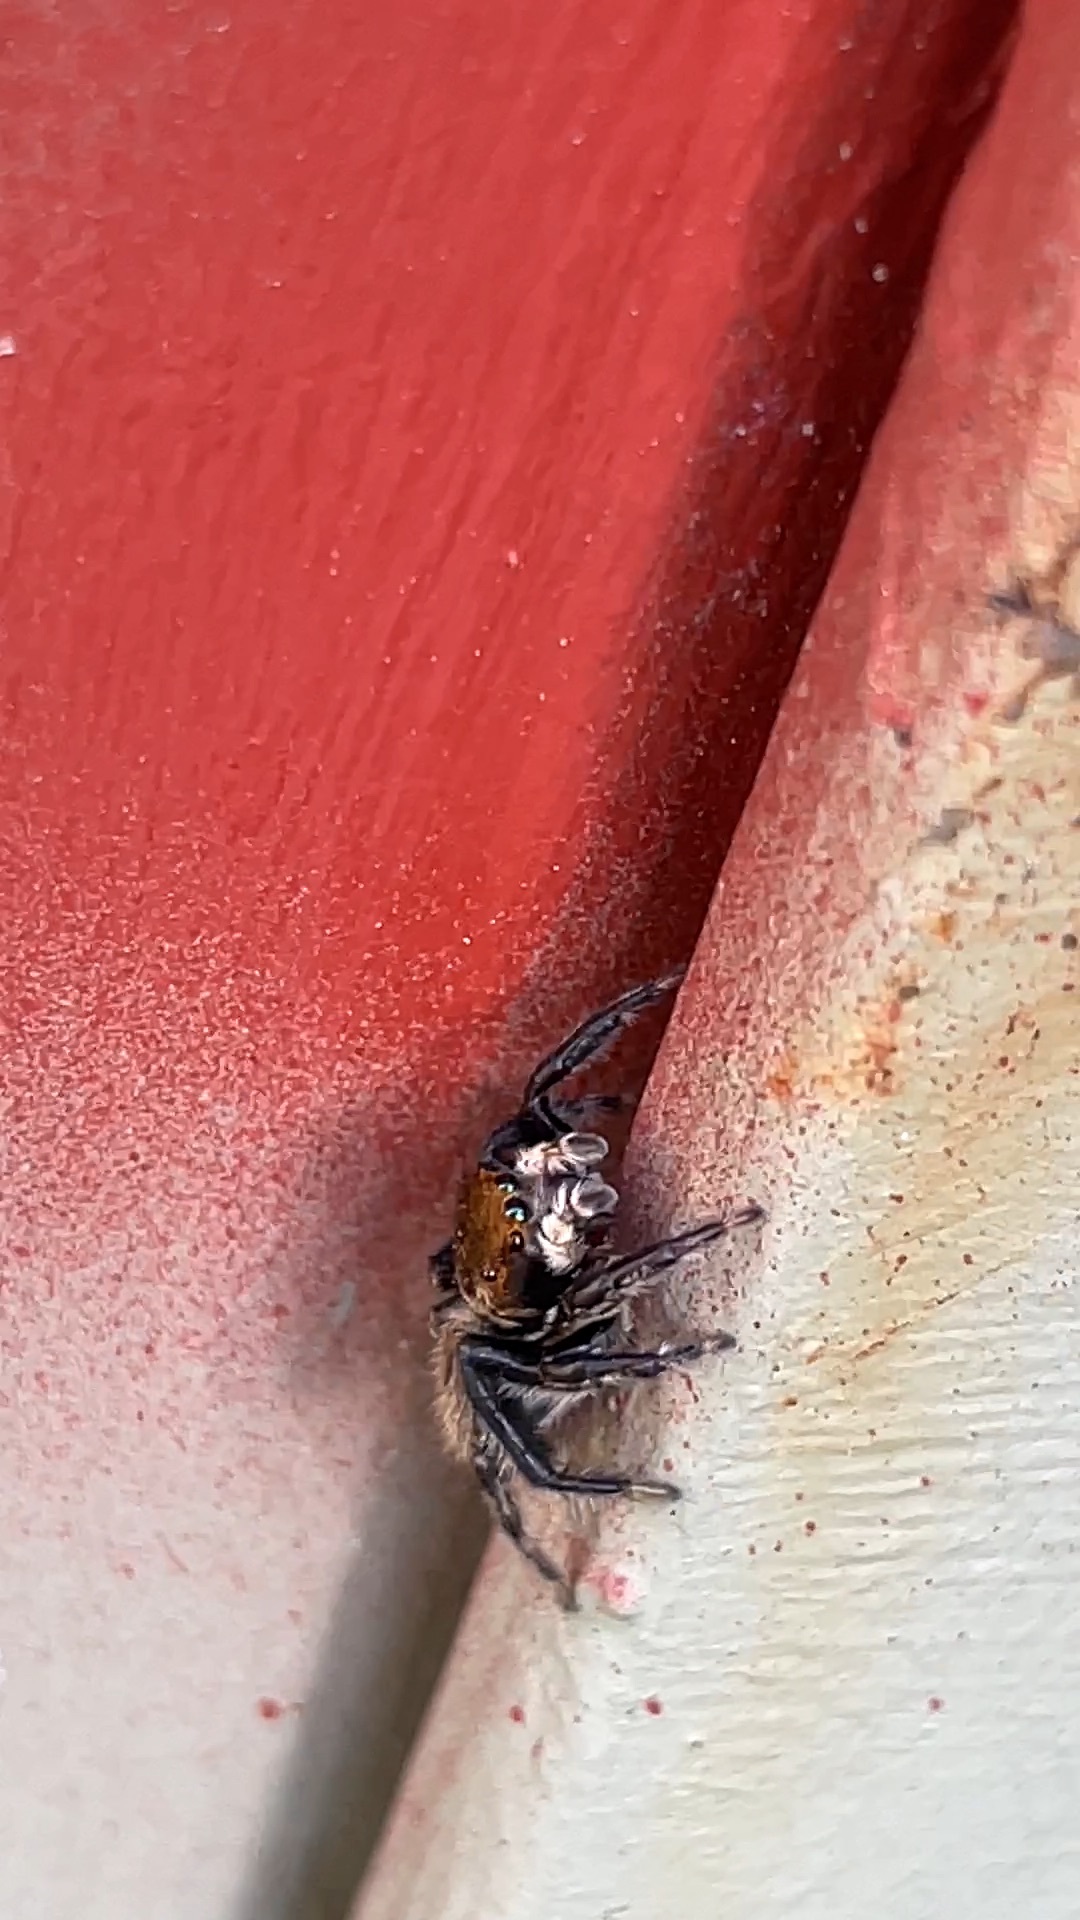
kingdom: Animalia
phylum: Arthropoda
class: Arachnida
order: Araneae
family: Salticidae
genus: Maratus
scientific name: Maratus griseus
